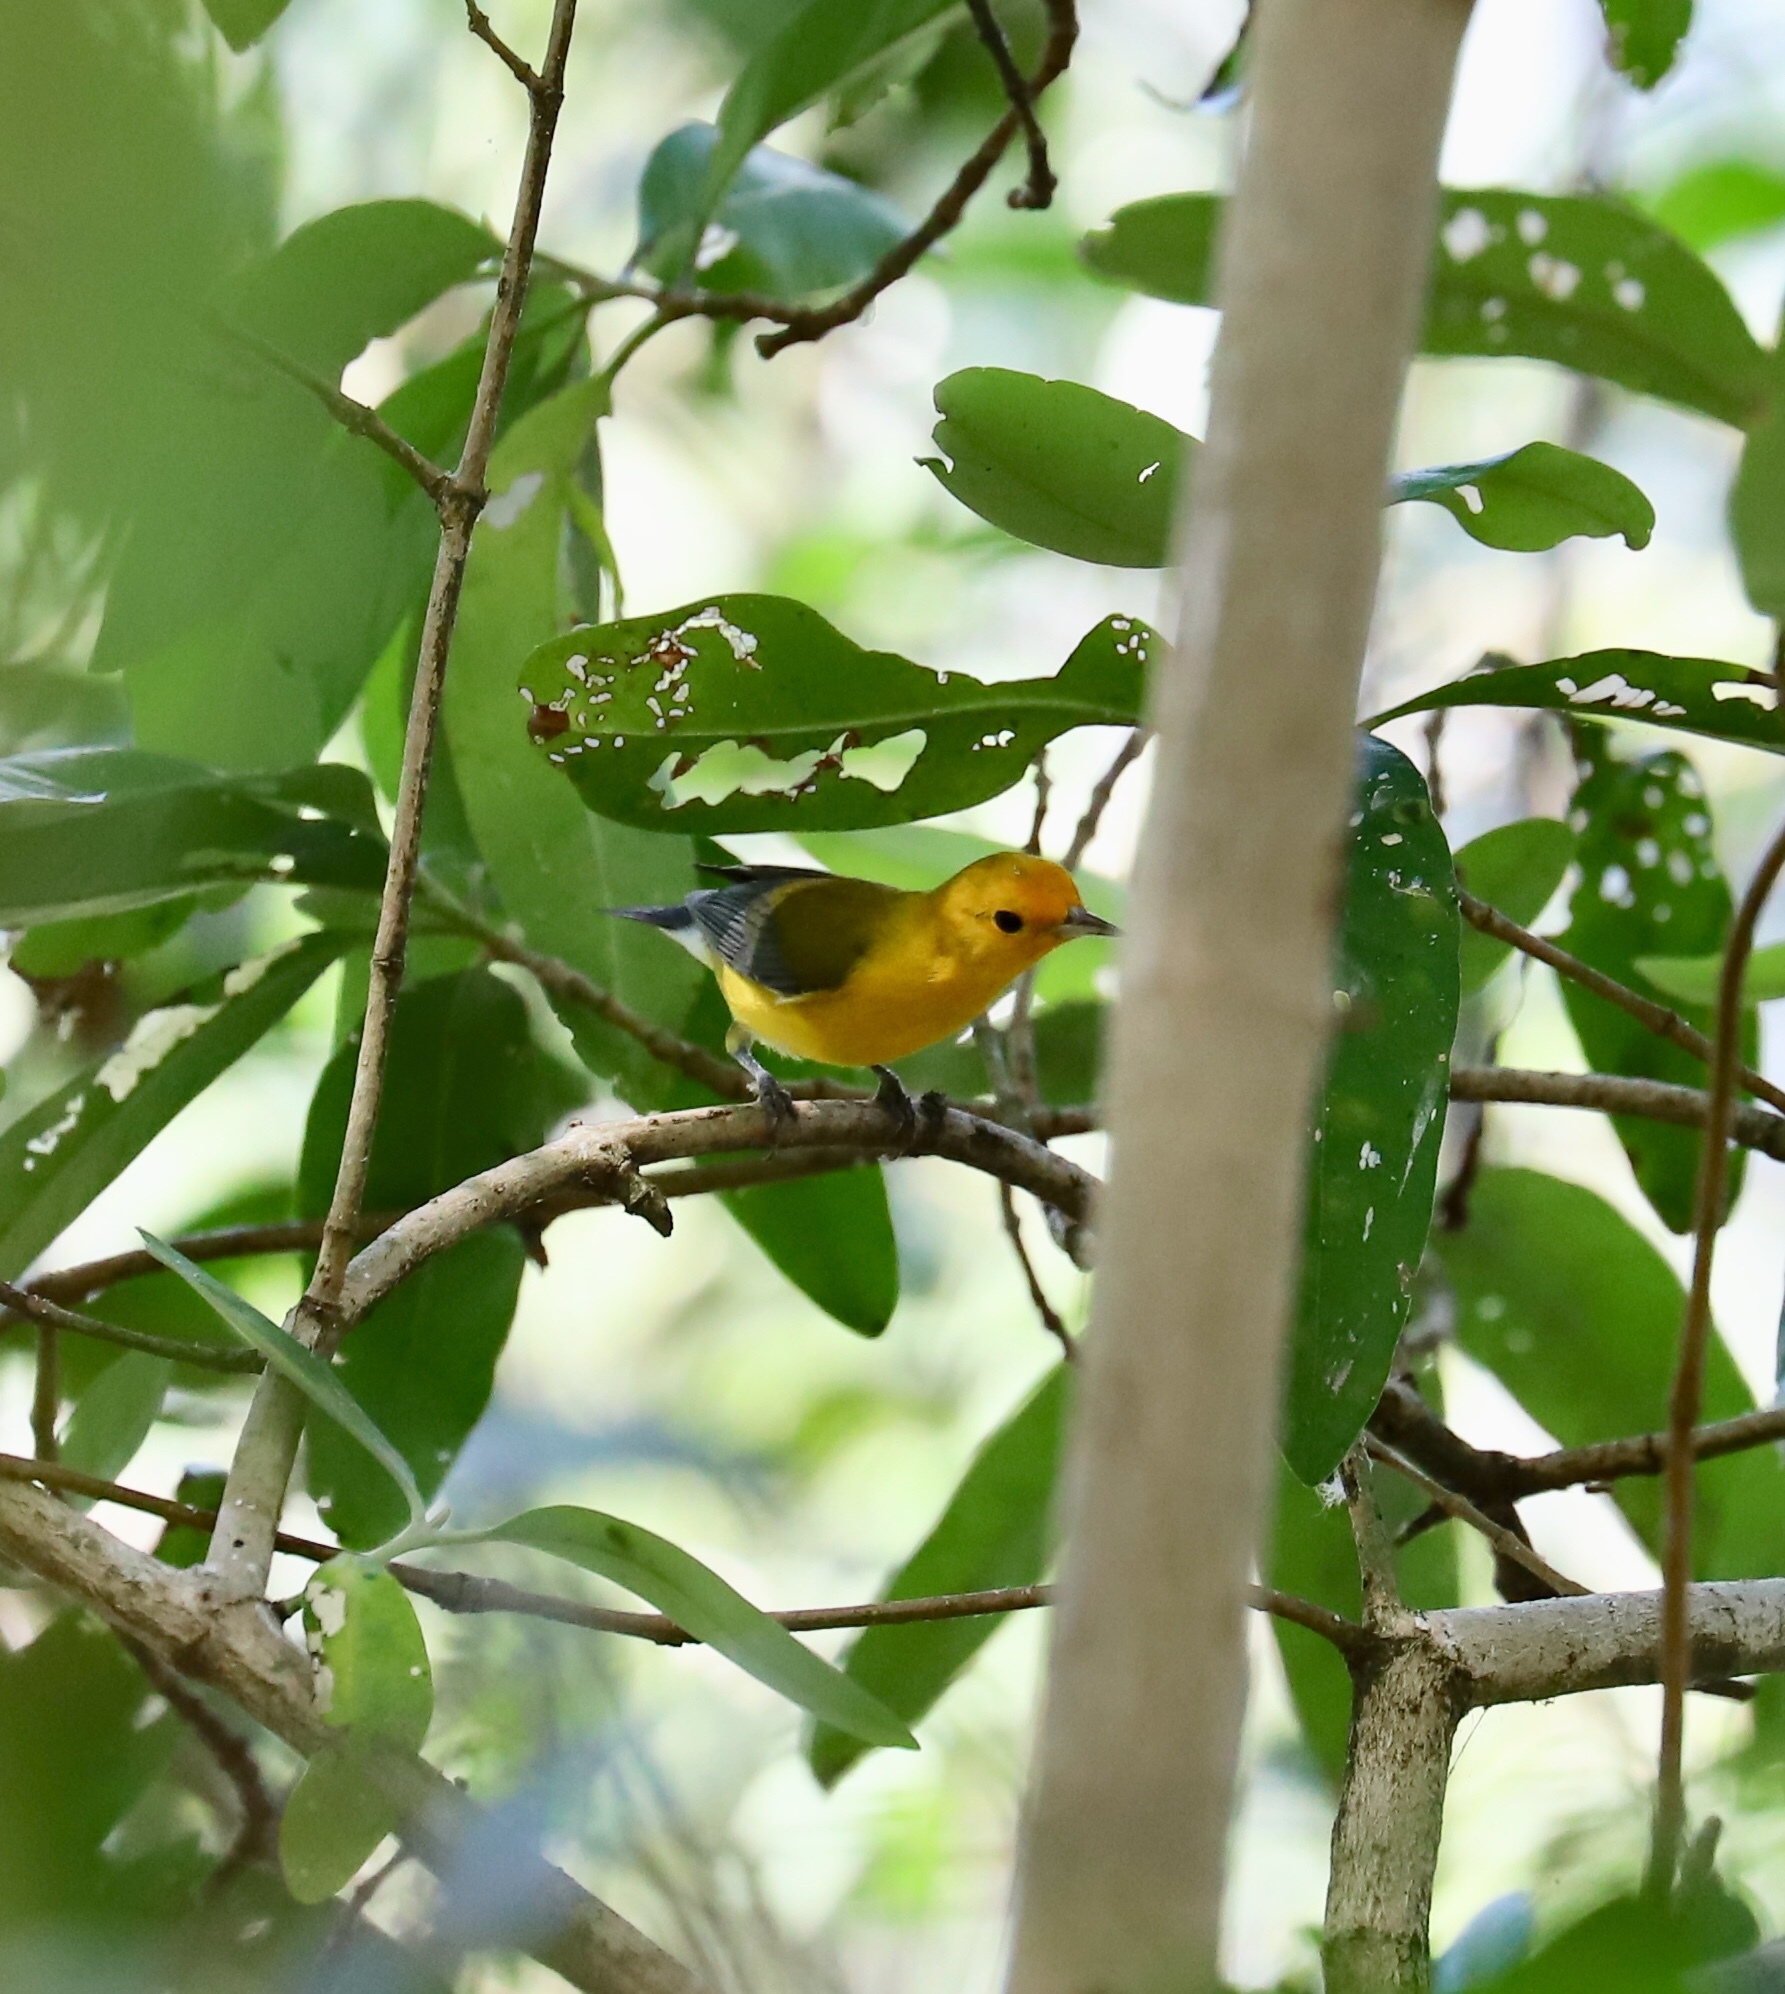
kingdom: Animalia
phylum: Chordata
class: Aves
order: Passeriformes
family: Parulidae
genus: Protonotaria
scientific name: Protonotaria citrea
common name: Prothonotary warbler
